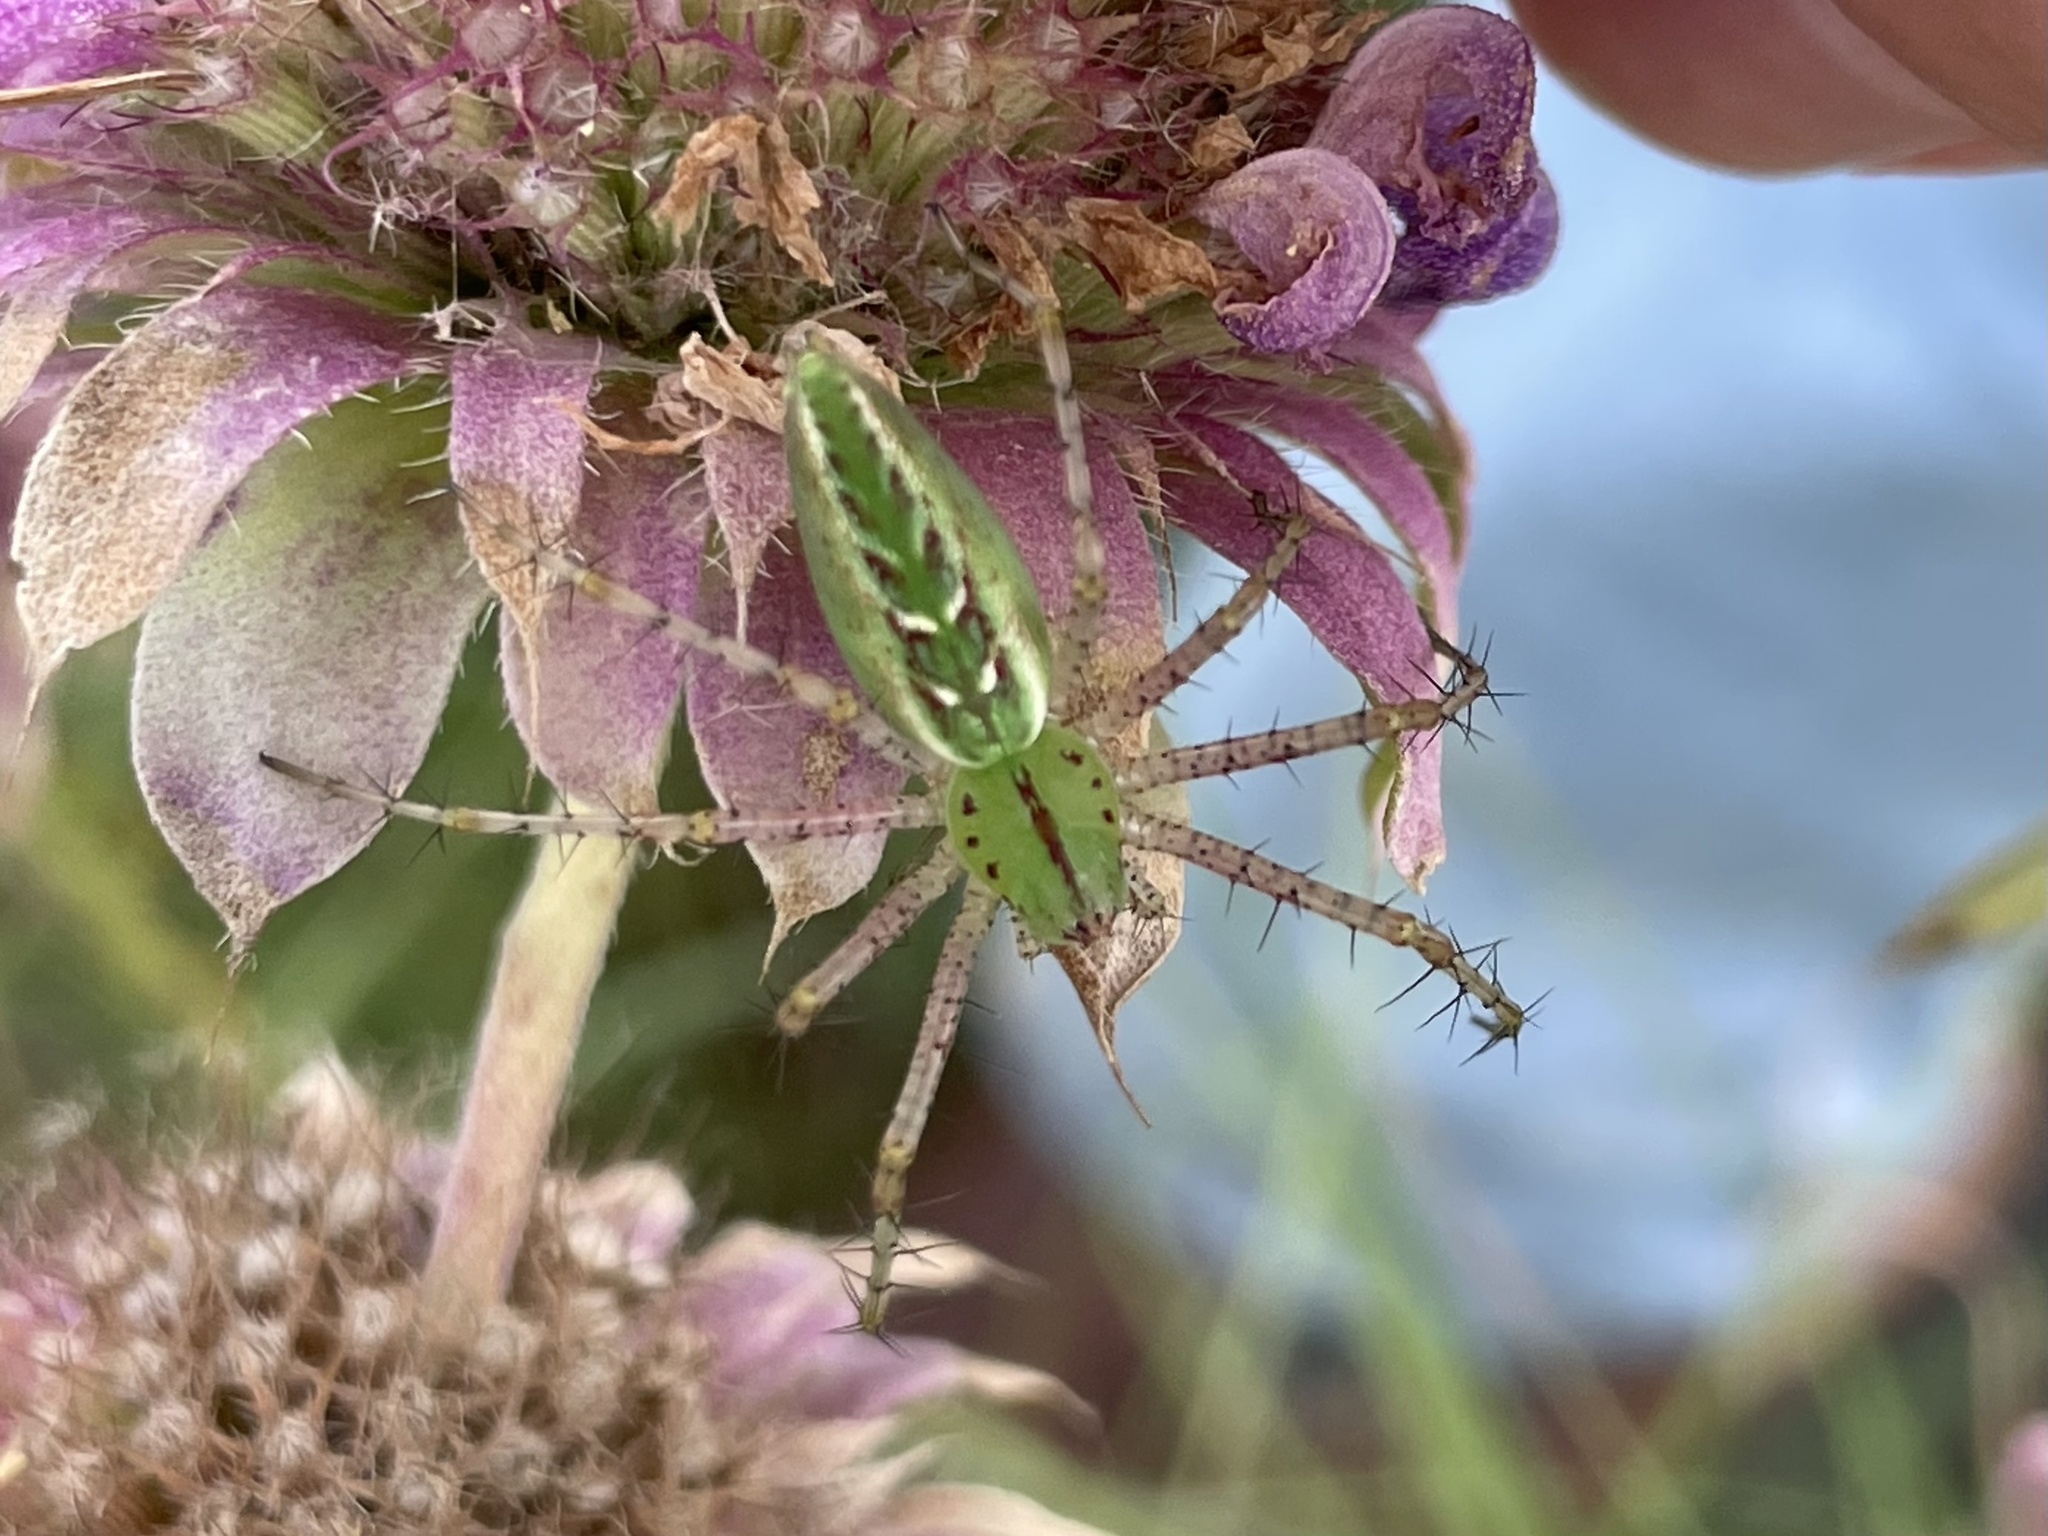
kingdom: Animalia
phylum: Arthropoda
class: Arachnida
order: Araneae
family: Oxyopidae
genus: Peucetia
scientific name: Peucetia viridans
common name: Lynx spiders
